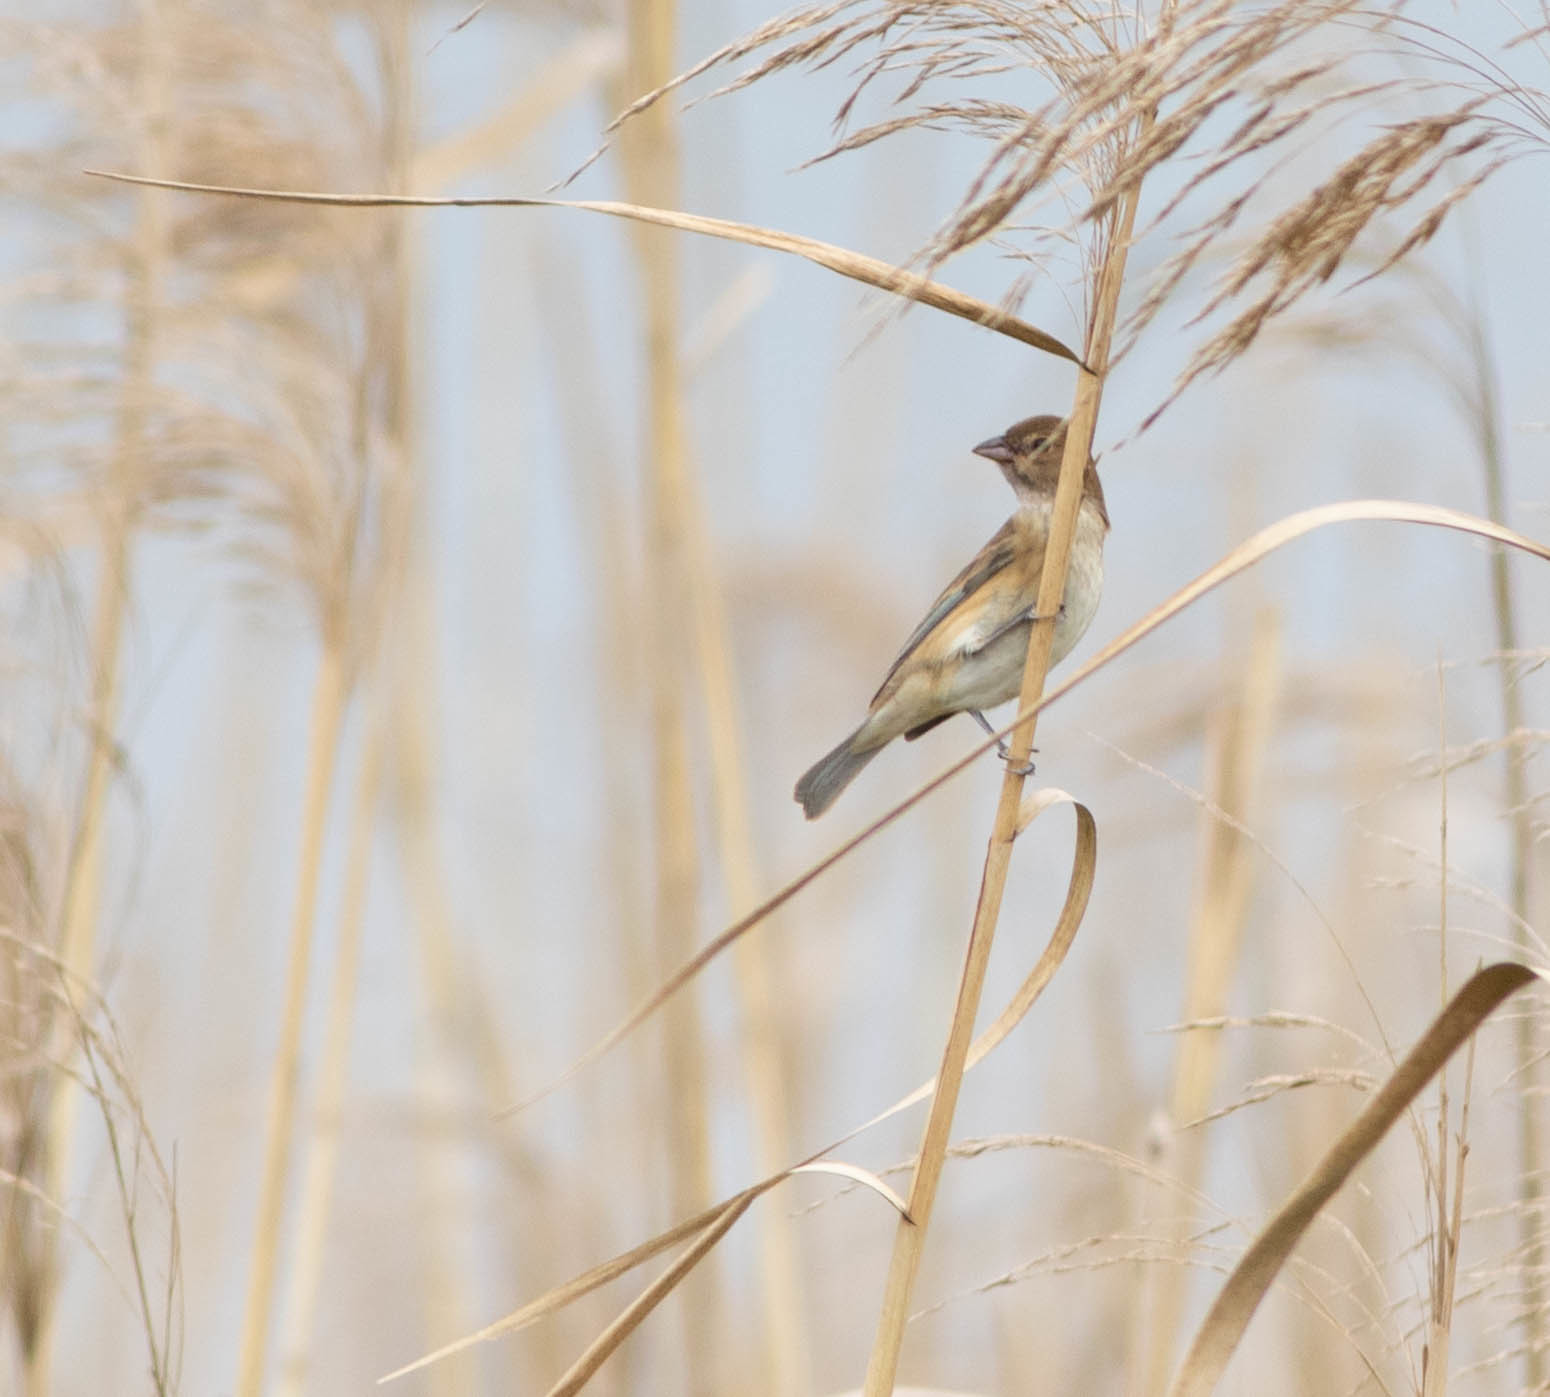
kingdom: Animalia
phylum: Chordata
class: Aves
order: Passeriformes
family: Cardinalidae
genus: Passerina
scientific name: Passerina cyanea
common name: Indigo bunting
